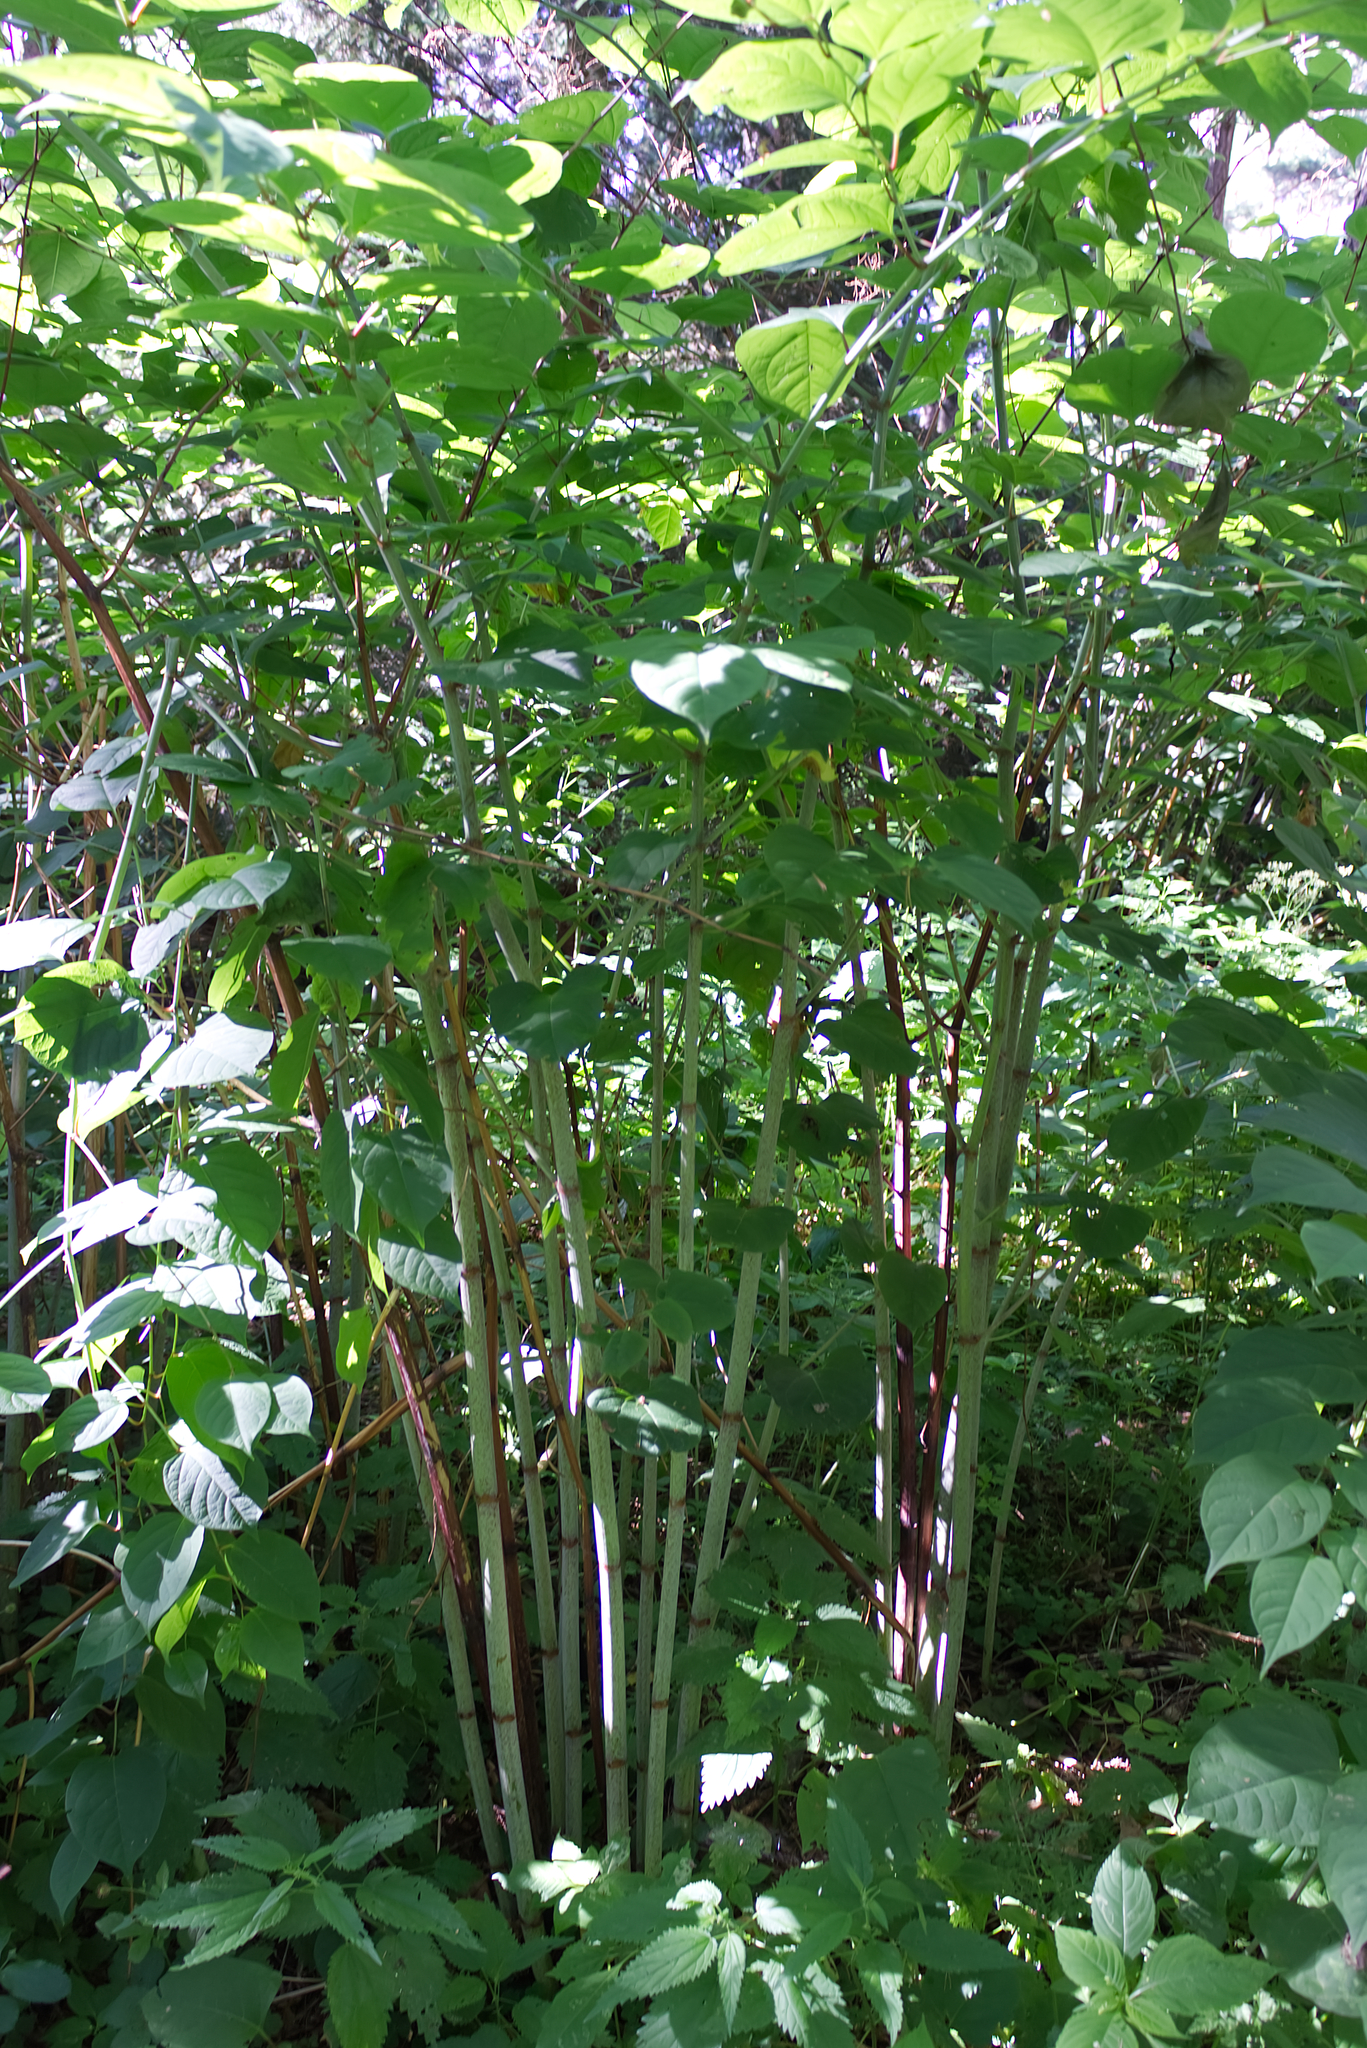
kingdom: Plantae
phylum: Tracheophyta
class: Magnoliopsida
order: Caryophyllales
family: Polygonaceae
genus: Reynoutria
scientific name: Reynoutria japonica
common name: Japanese knotweed
